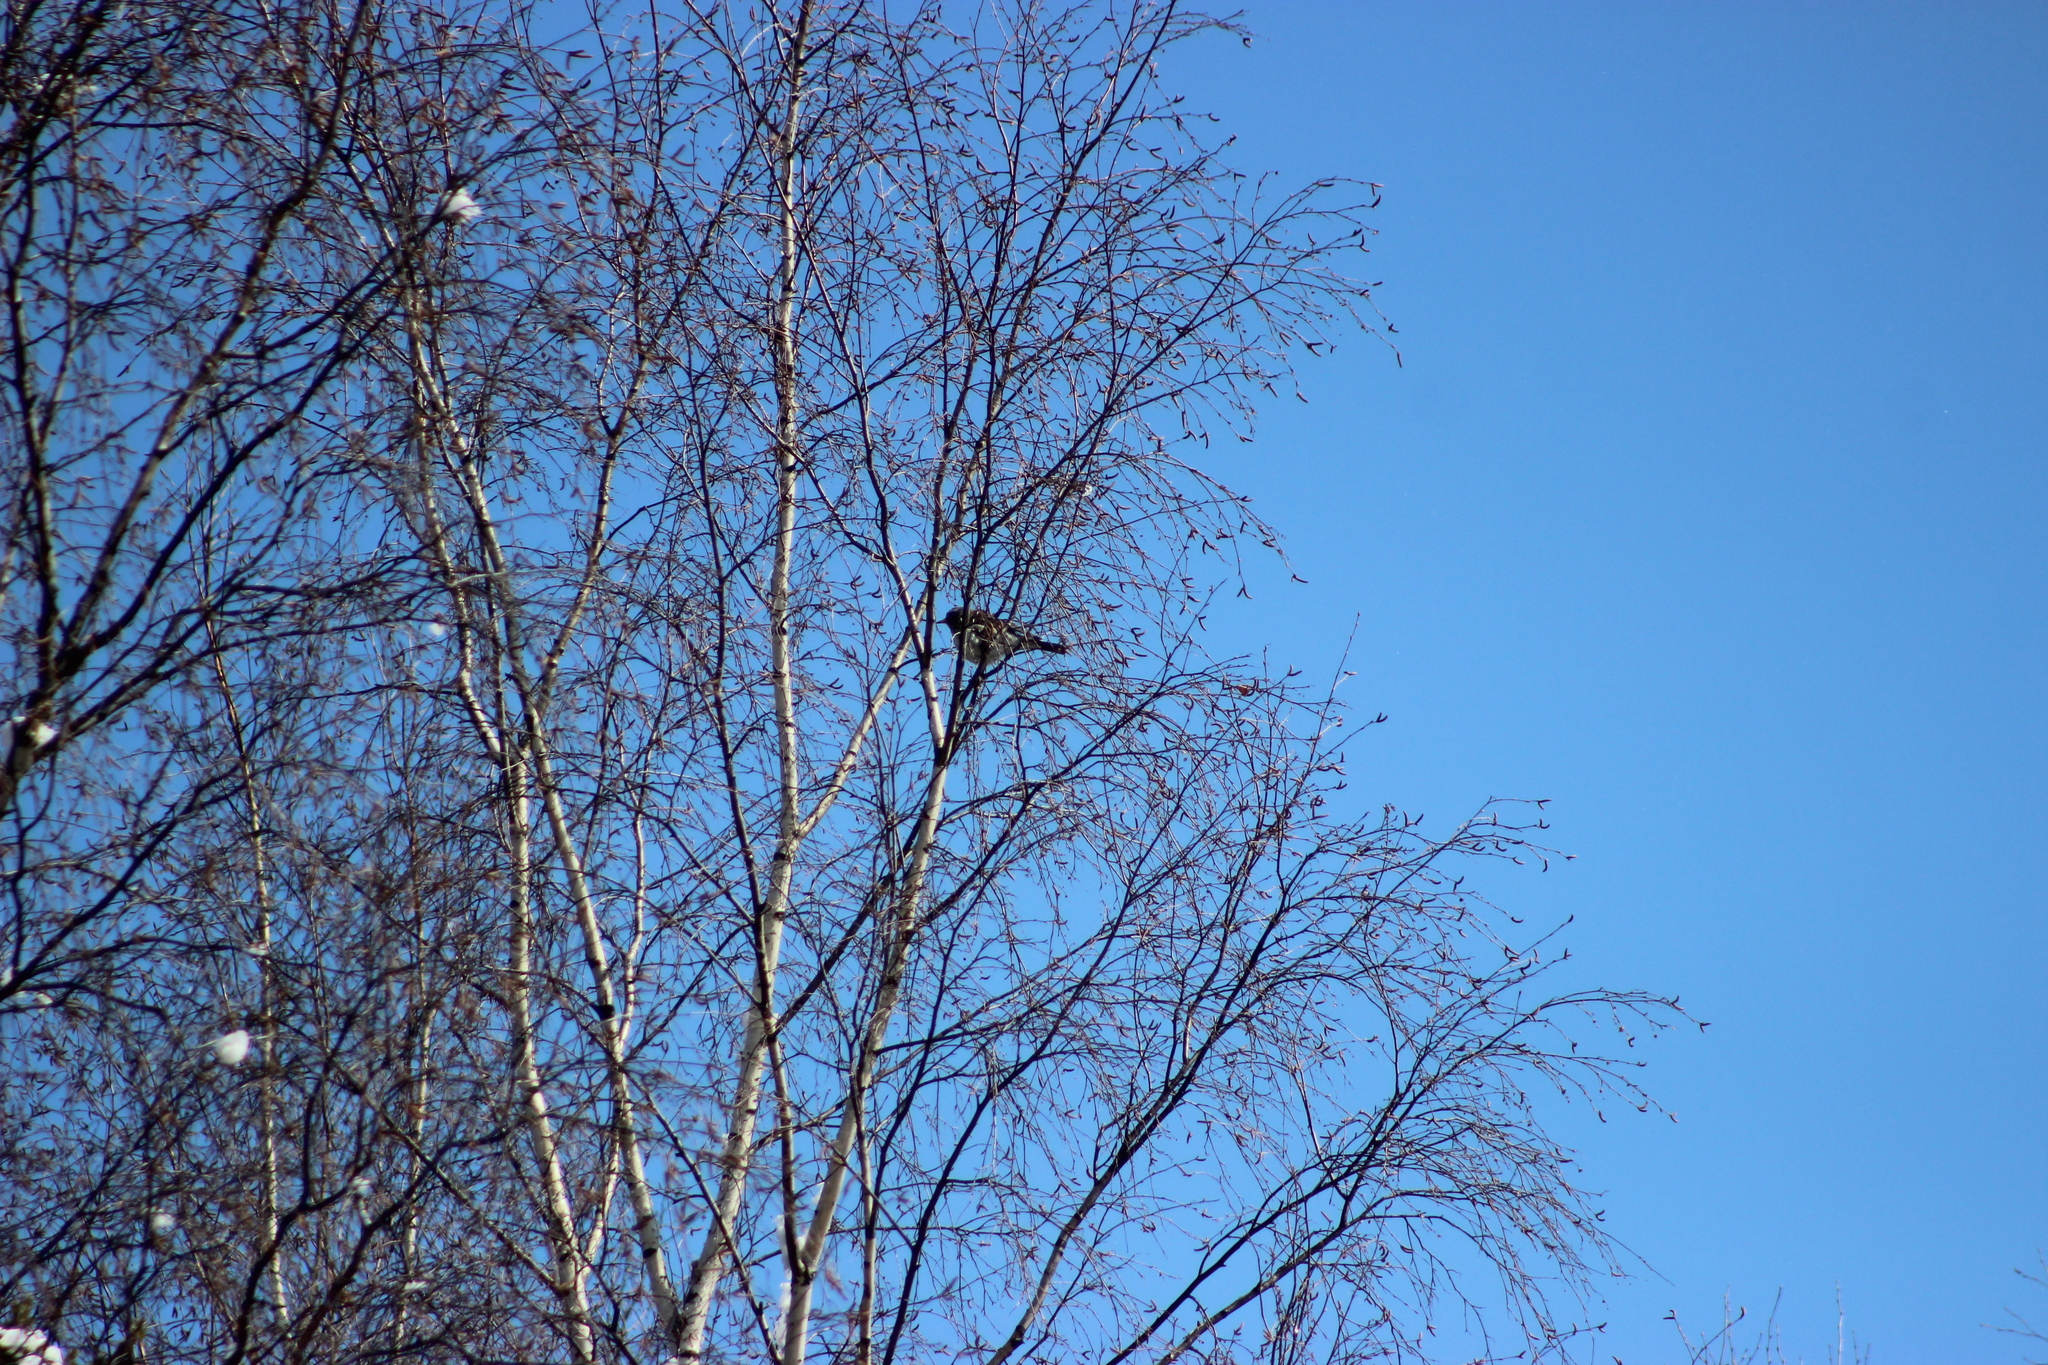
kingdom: Animalia
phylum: Chordata
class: Aves
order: Passeriformes
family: Turdidae
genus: Turdus
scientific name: Turdus pilaris
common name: Fieldfare
